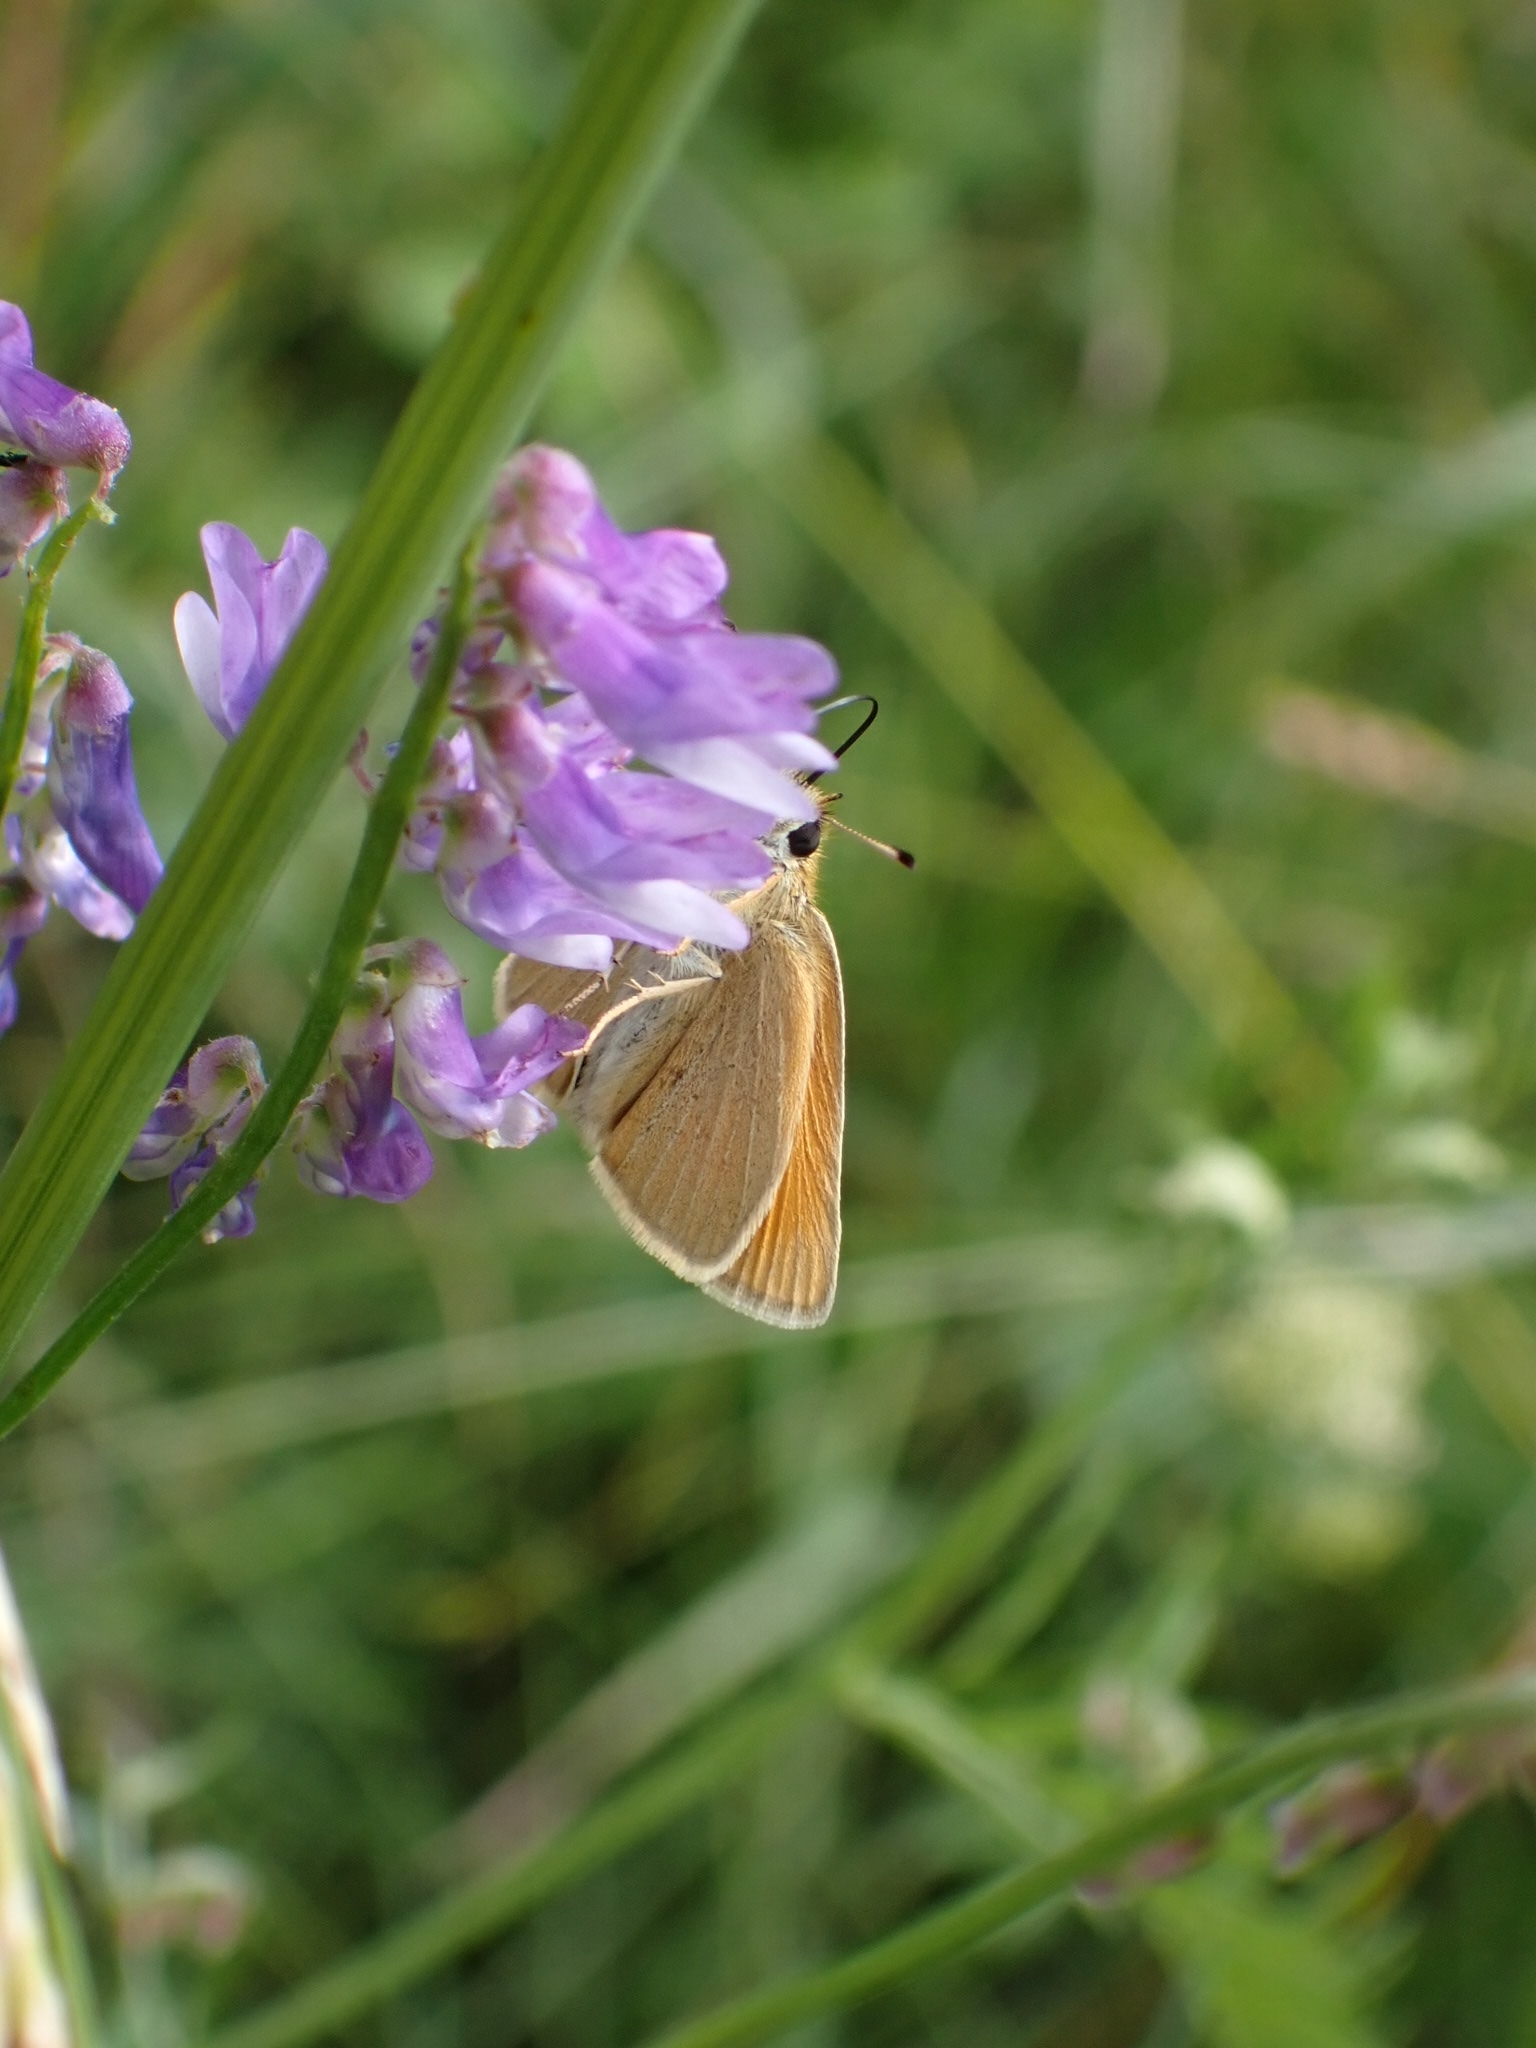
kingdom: Animalia
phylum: Arthropoda
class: Insecta
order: Lepidoptera
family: Hesperiidae
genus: Thymelicus
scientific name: Thymelicus lineola
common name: Essex skipper
